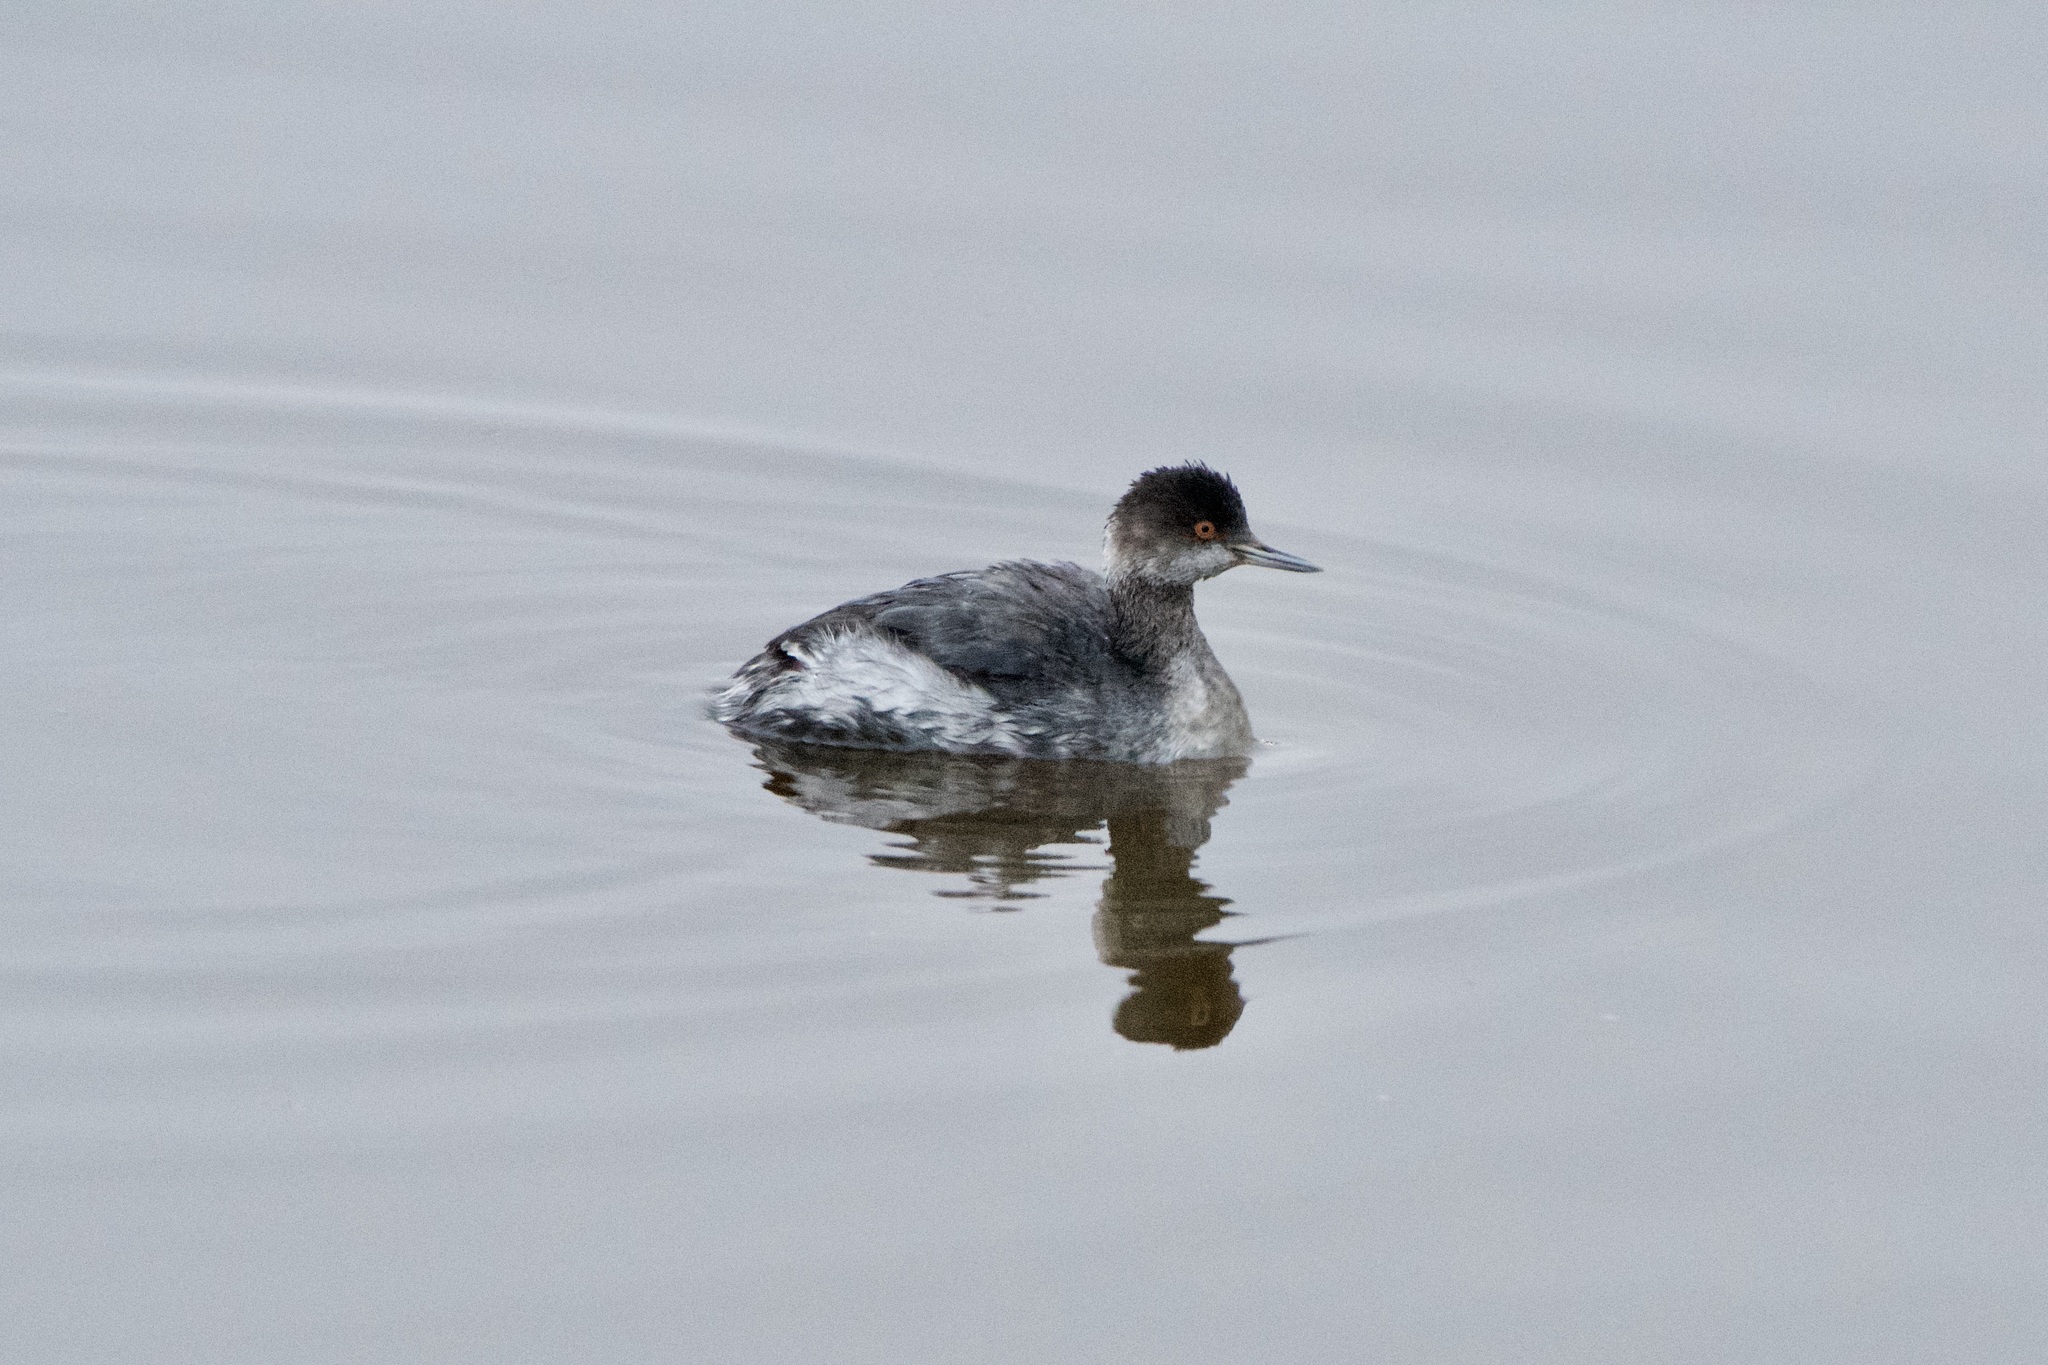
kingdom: Animalia
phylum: Chordata
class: Aves
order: Podicipediformes
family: Podicipedidae
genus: Podiceps
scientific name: Podiceps nigricollis
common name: Black-necked grebe
